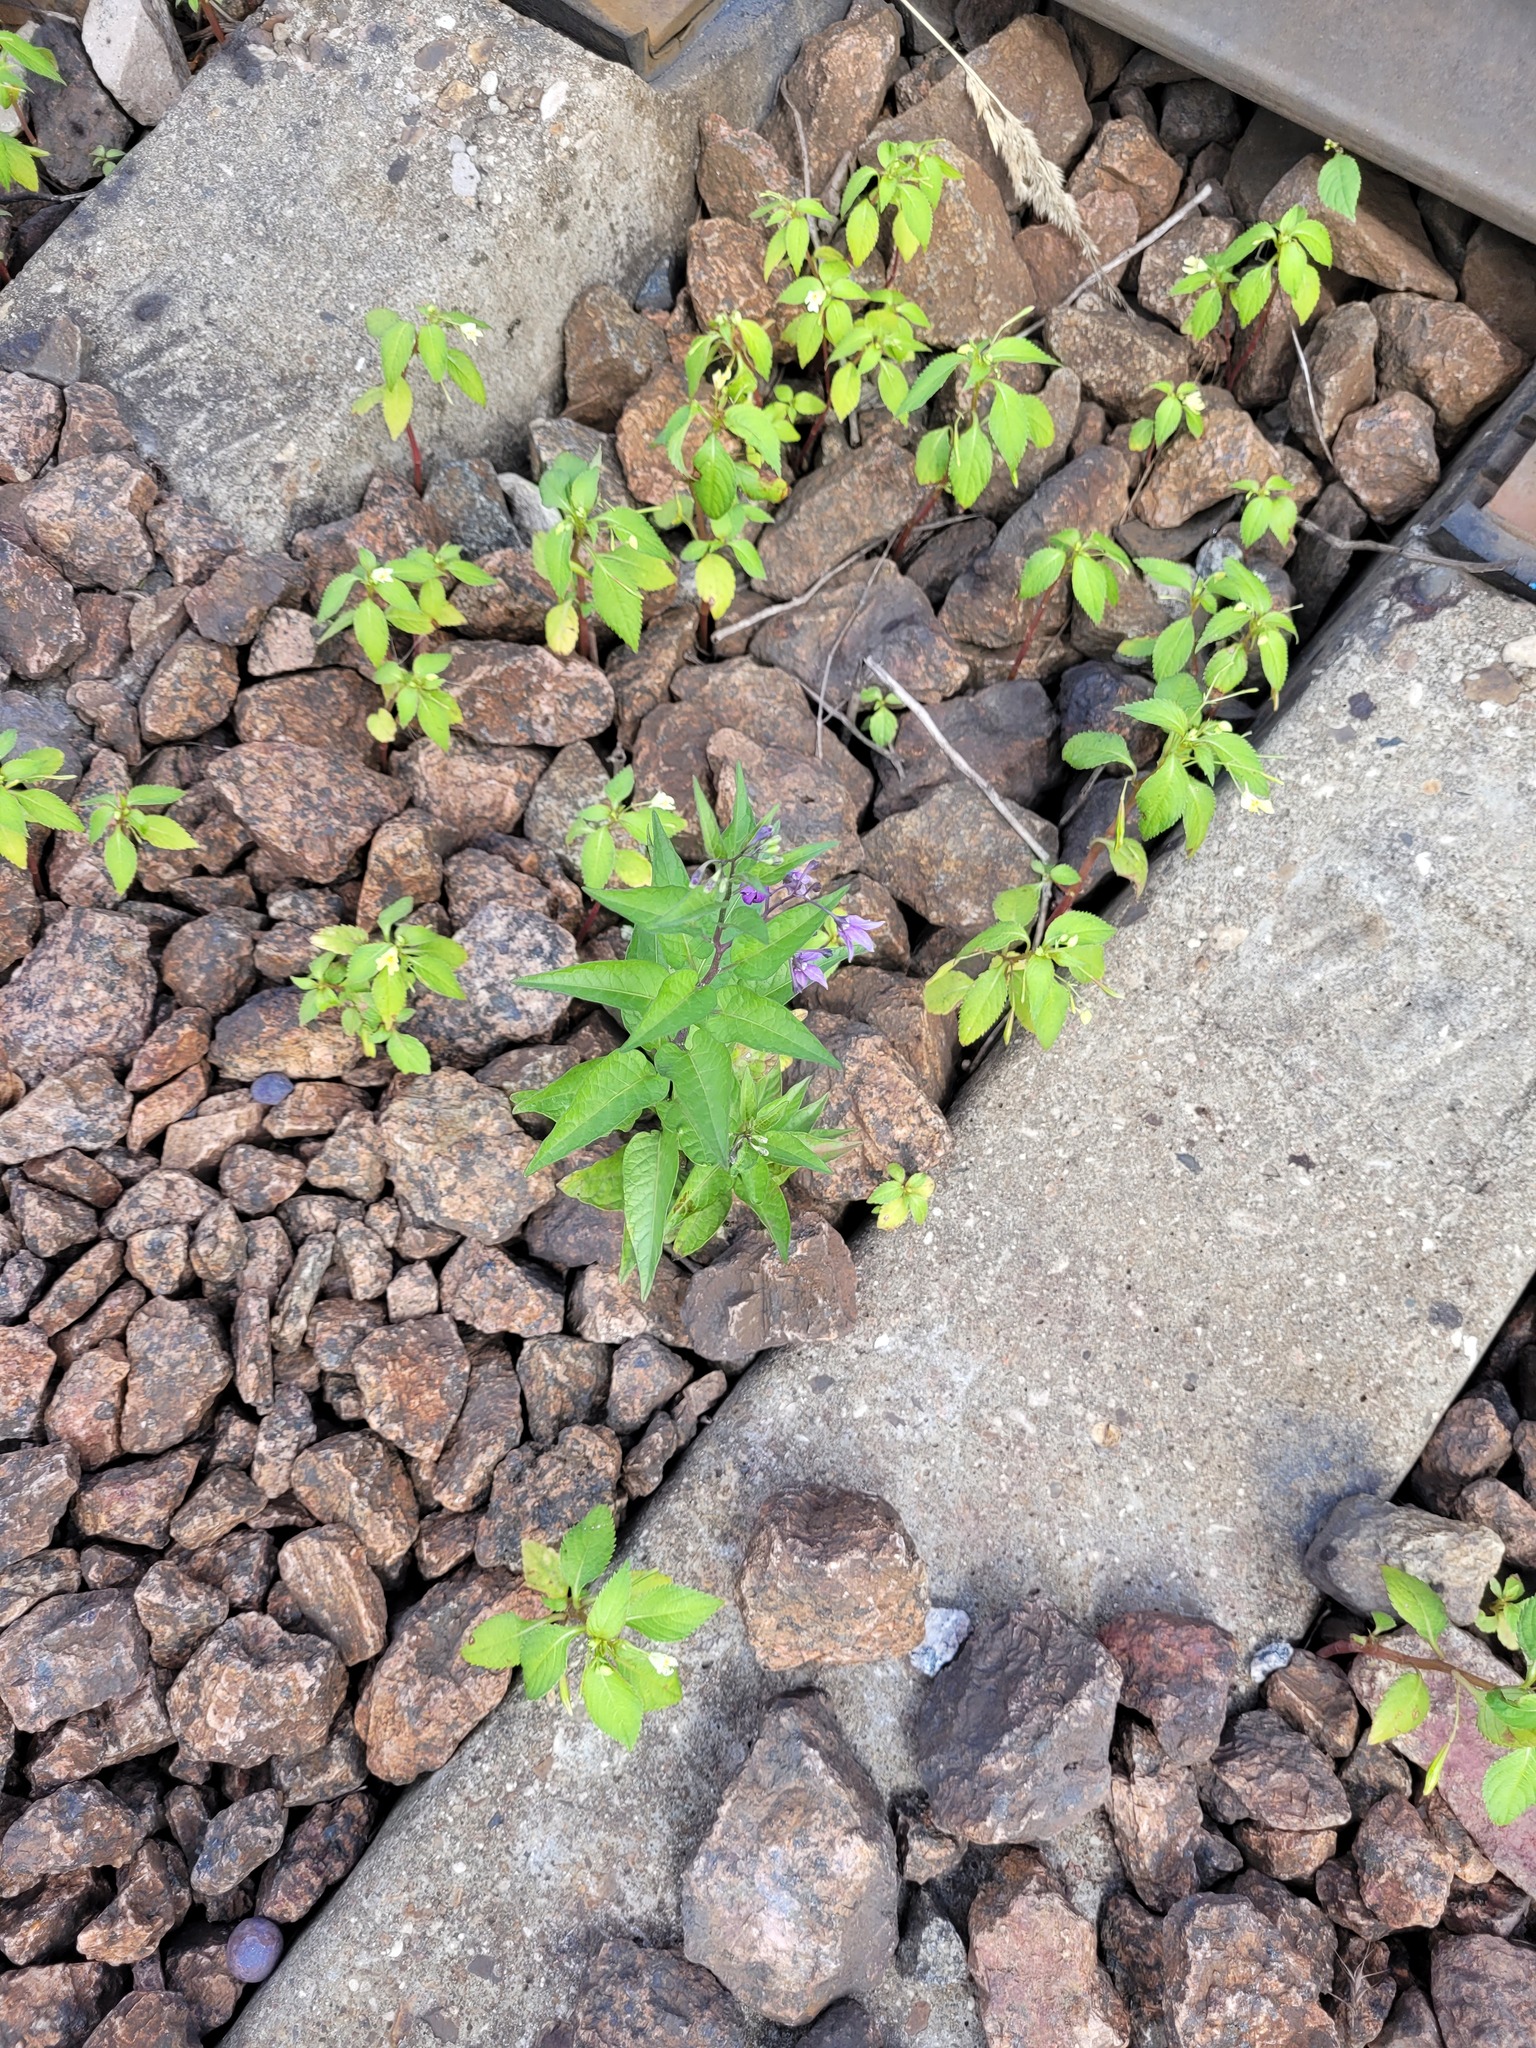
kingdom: Plantae
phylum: Tracheophyta
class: Magnoliopsida
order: Solanales
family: Solanaceae
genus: Solanum
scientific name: Solanum dulcamara
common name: Climbing nightshade
